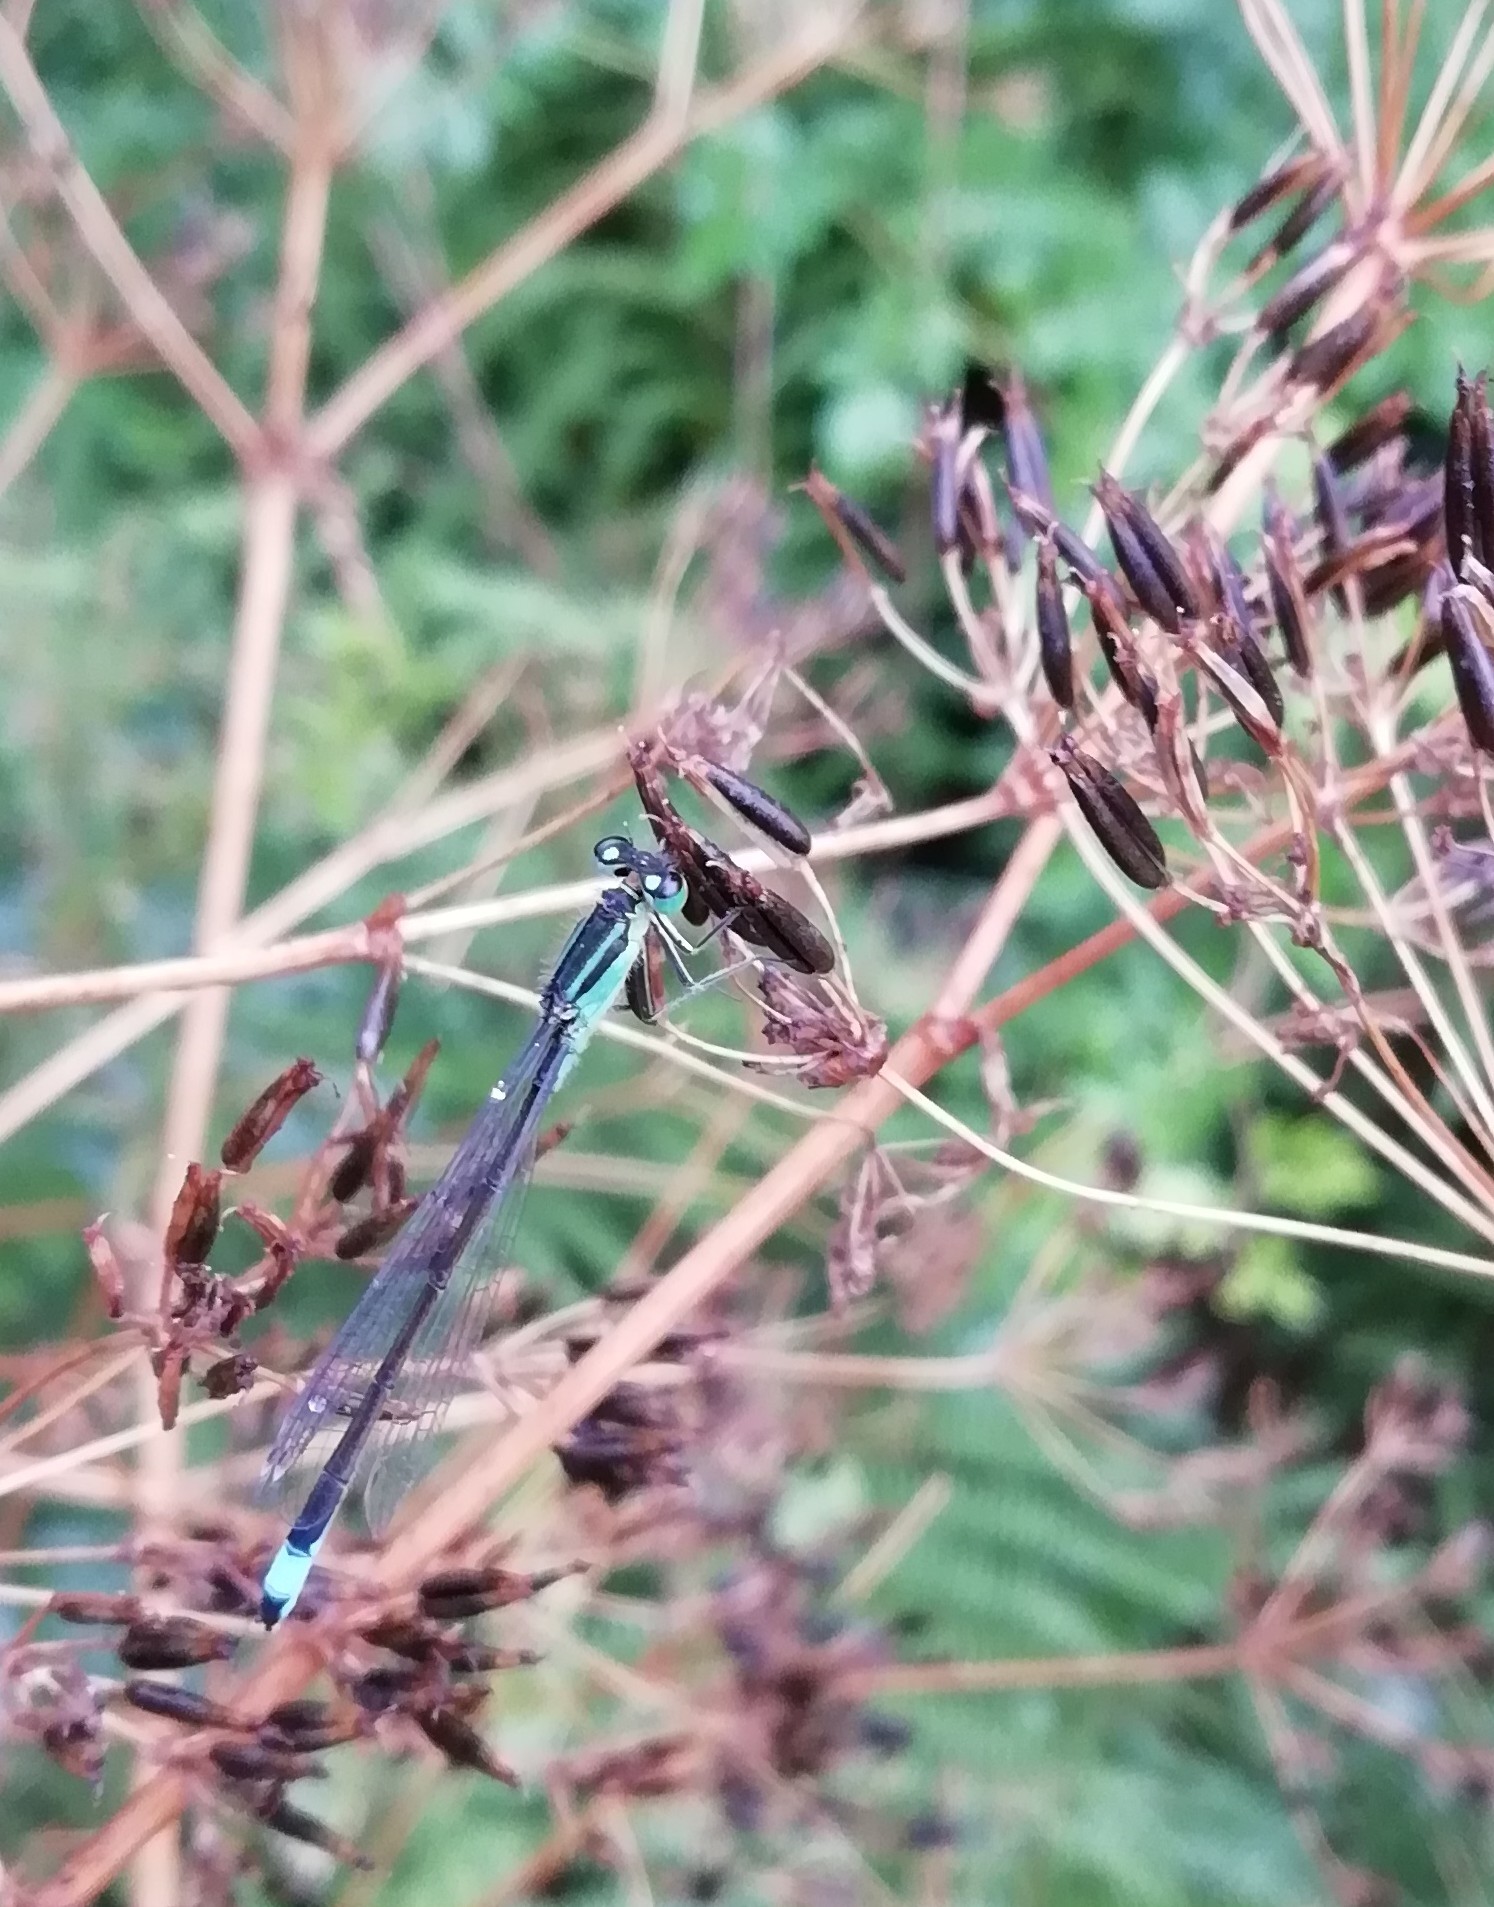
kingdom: Animalia
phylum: Arthropoda
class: Insecta
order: Odonata
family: Coenagrionidae
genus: Ischnura
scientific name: Ischnura elegans
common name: Blue-tailed damselfly
